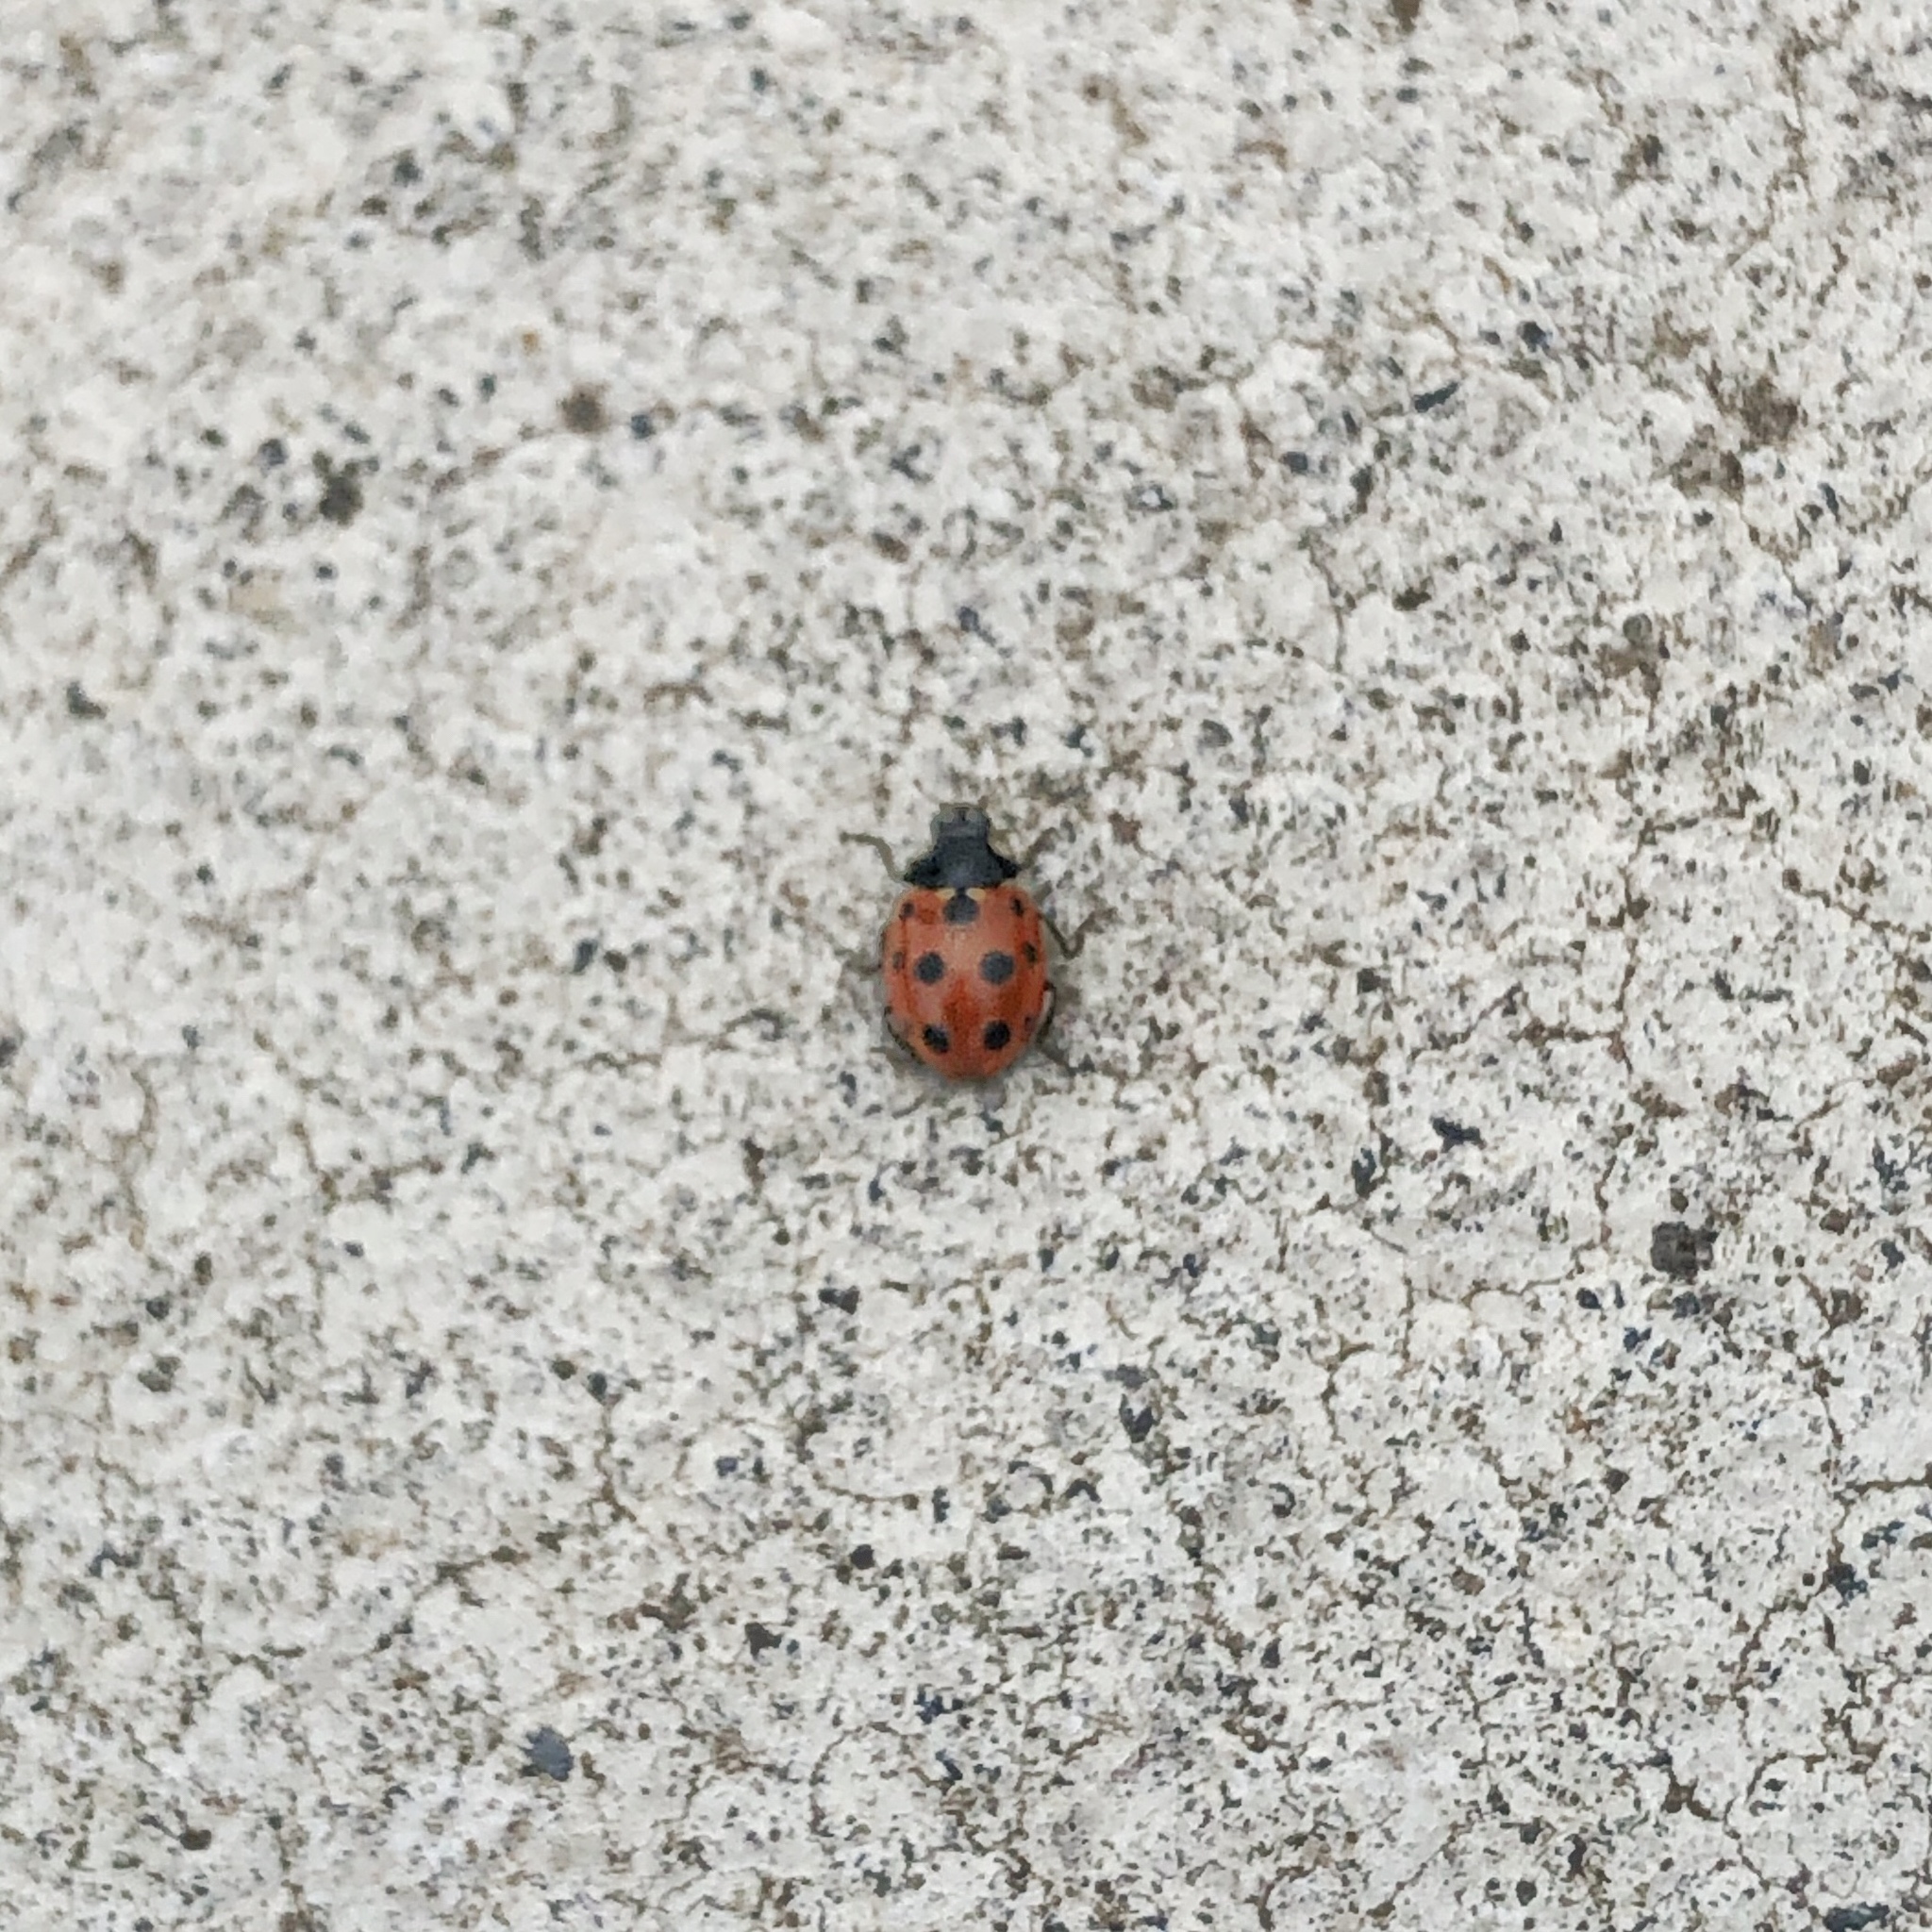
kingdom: Animalia
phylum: Arthropoda
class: Insecta
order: Coleoptera
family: Coccinellidae
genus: Coccinella
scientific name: Coccinella undecimpunctata
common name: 11-spot ladybird
